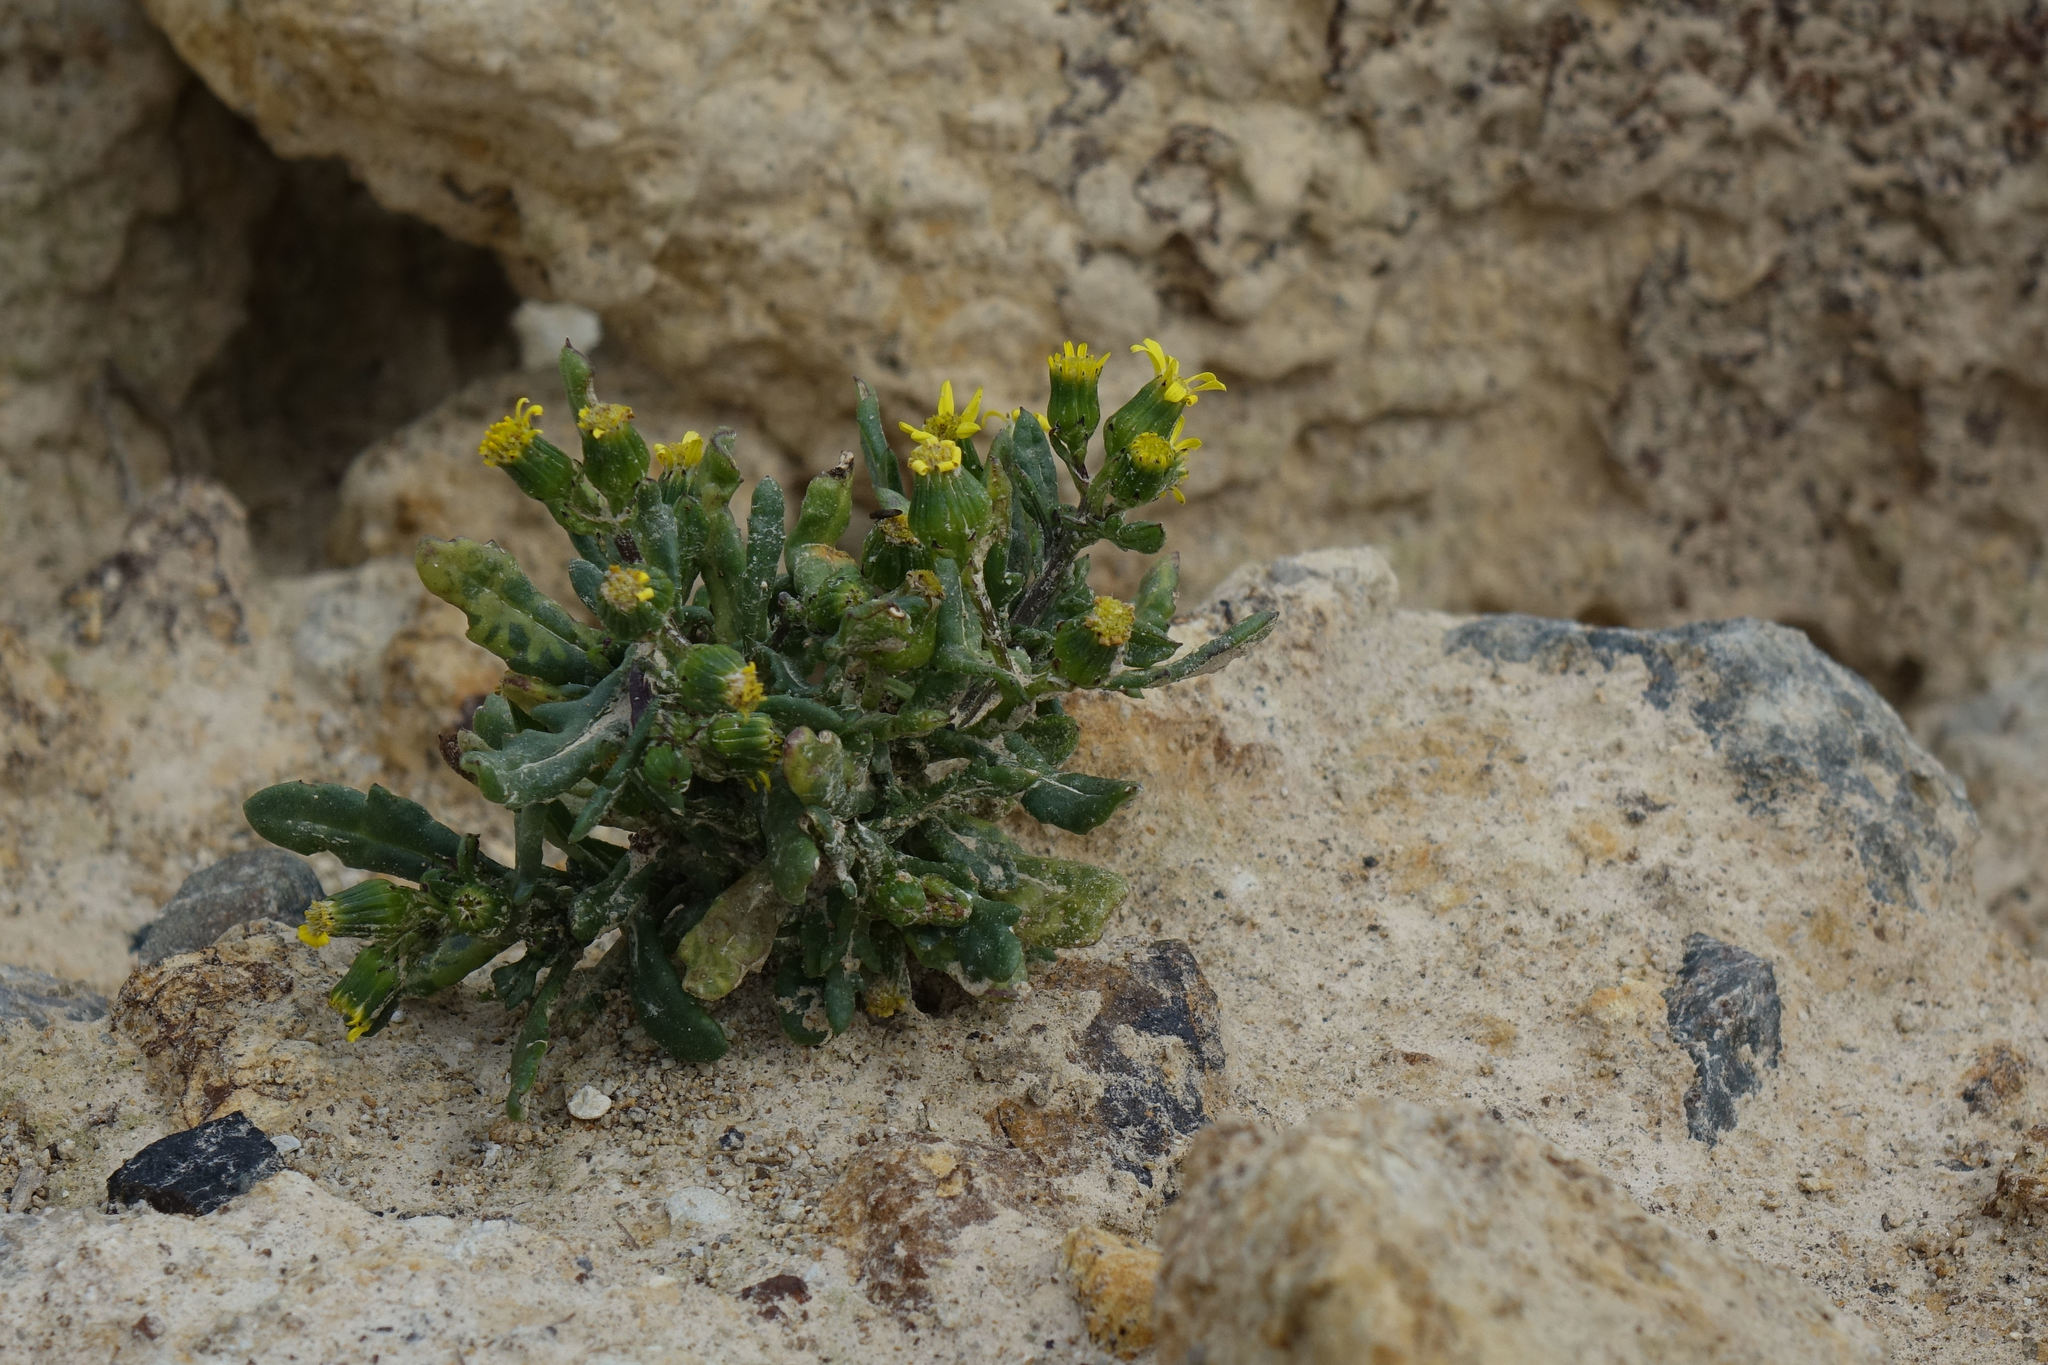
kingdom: Plantae
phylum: Tracheophyta
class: Magnoliopsida
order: Asterales
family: Asteraceae
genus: Senecio
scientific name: Senecio carnosulus
